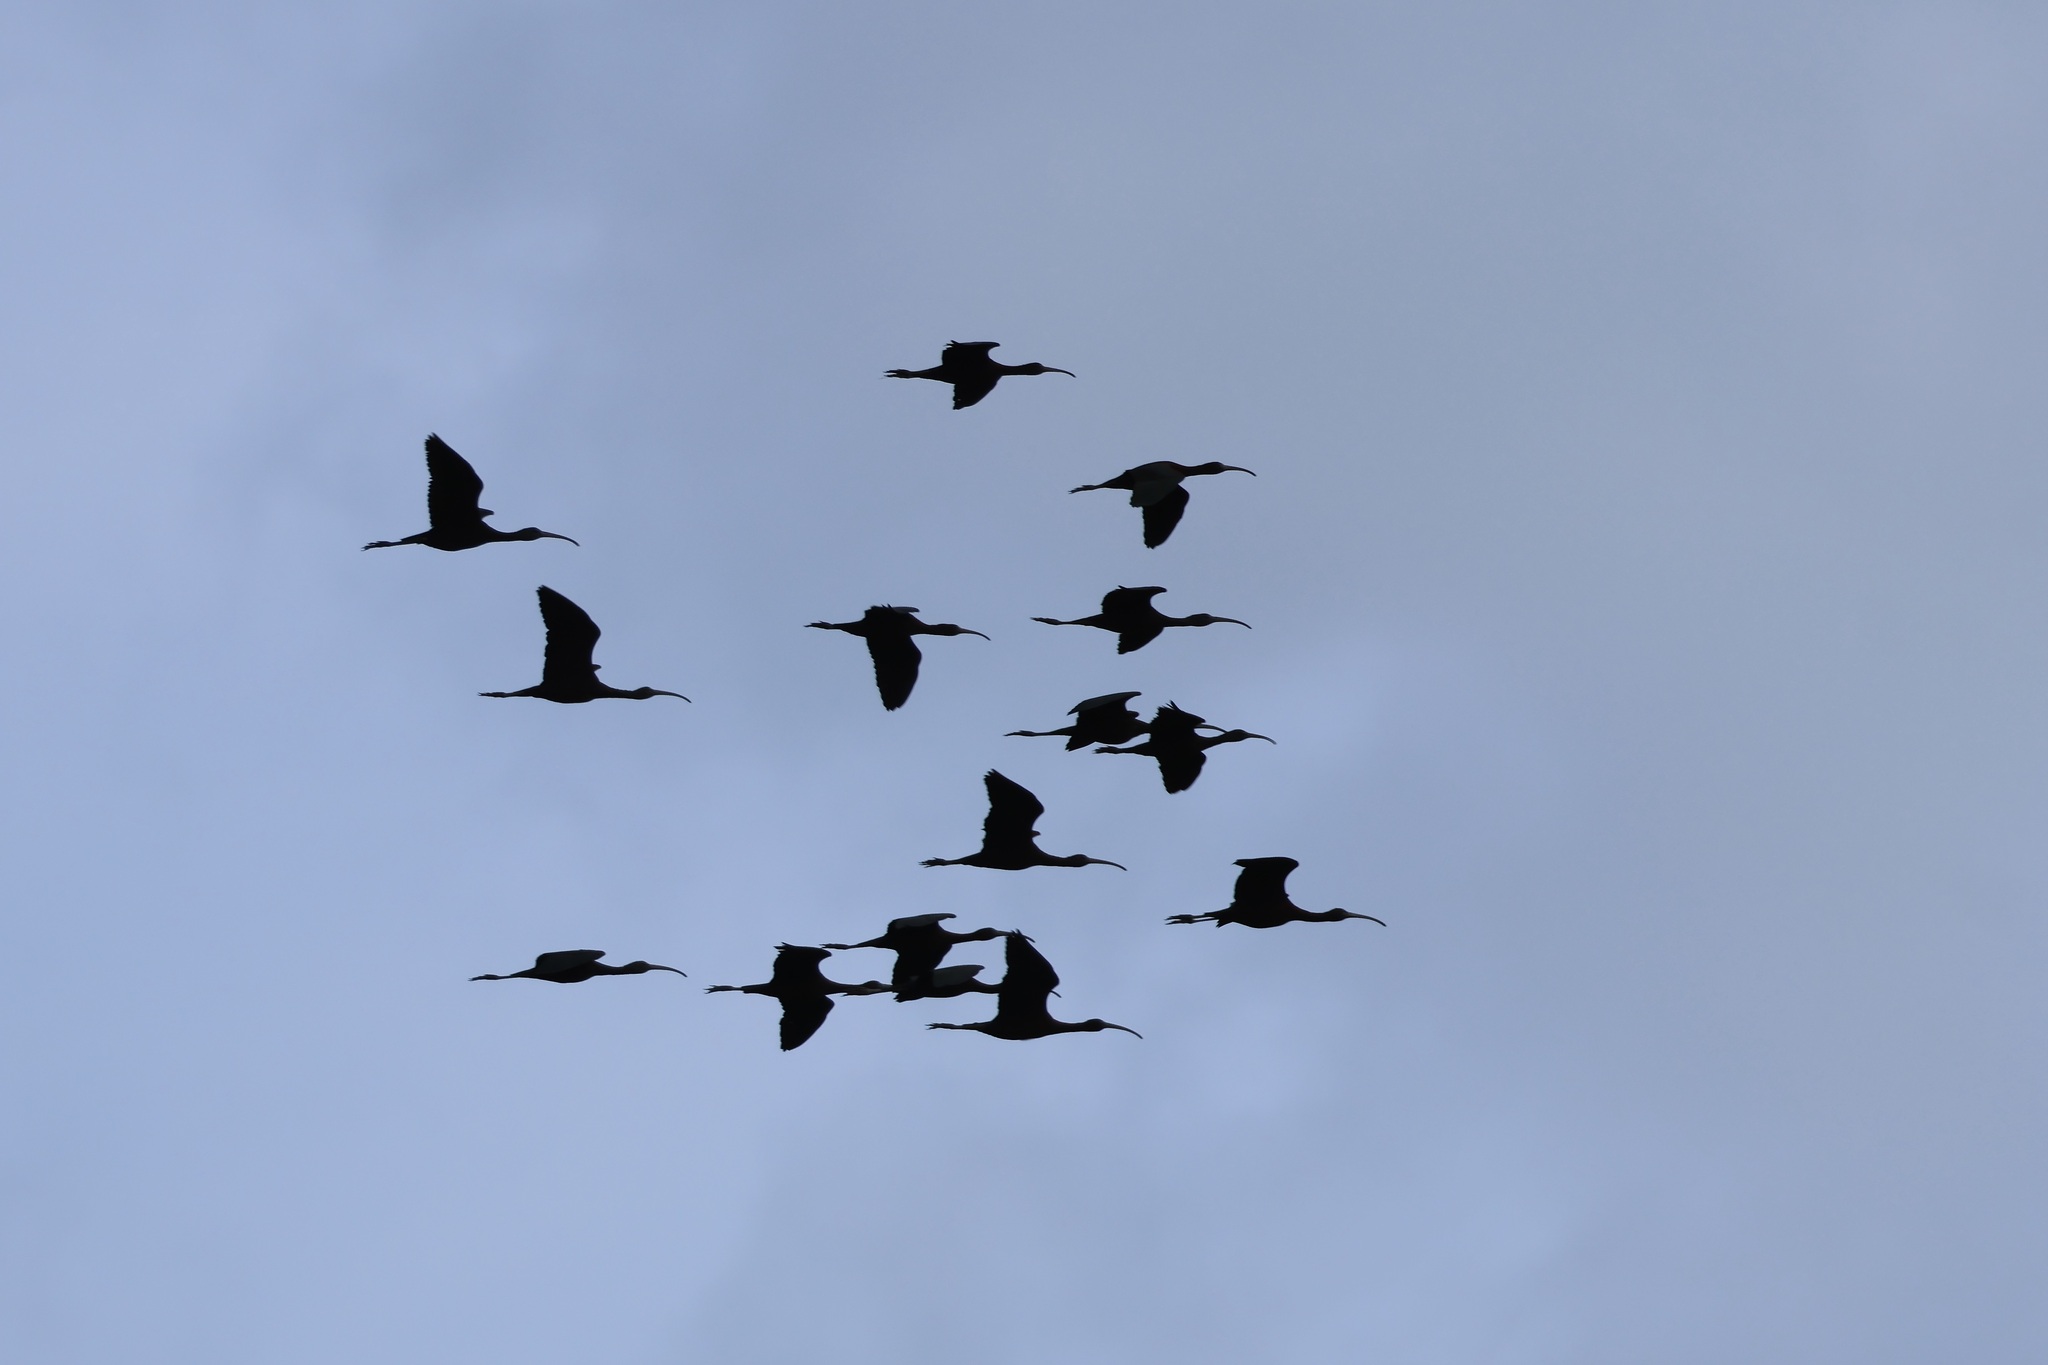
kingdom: Animalia
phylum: Chordata
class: Aves
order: Pelecaniformes
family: Threskiornithidae
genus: Plegadis
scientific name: Plegadis falcinellus
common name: Glossy ibis
